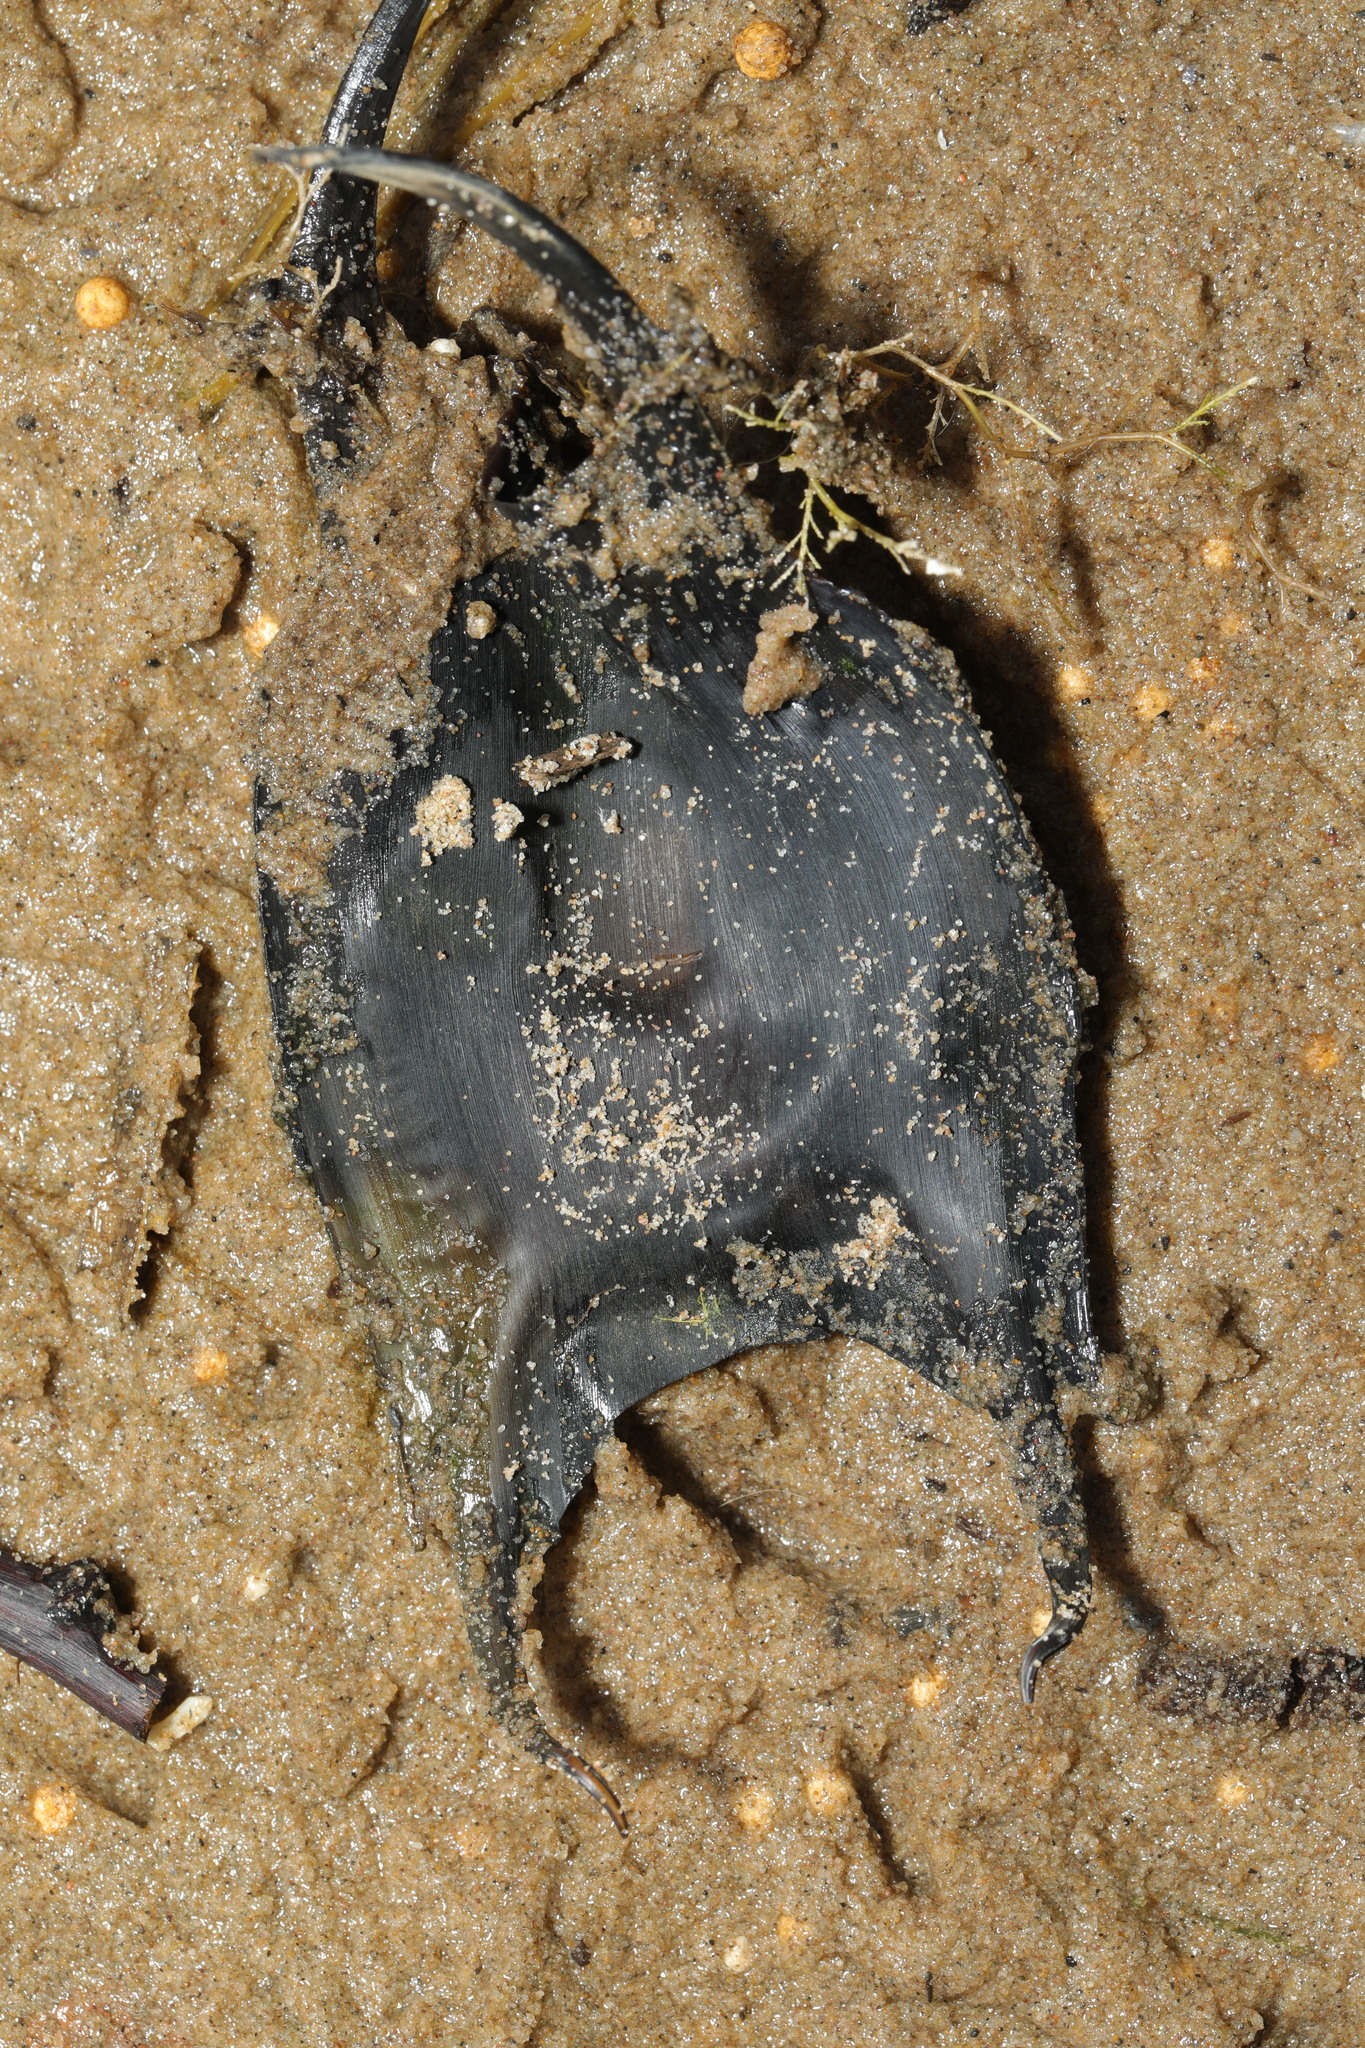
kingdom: Animalia
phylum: Chordata
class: Elasmobranchii
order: Rajiformes
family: Rajidae
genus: Raja
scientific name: Raja clavata
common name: Thornback ray
